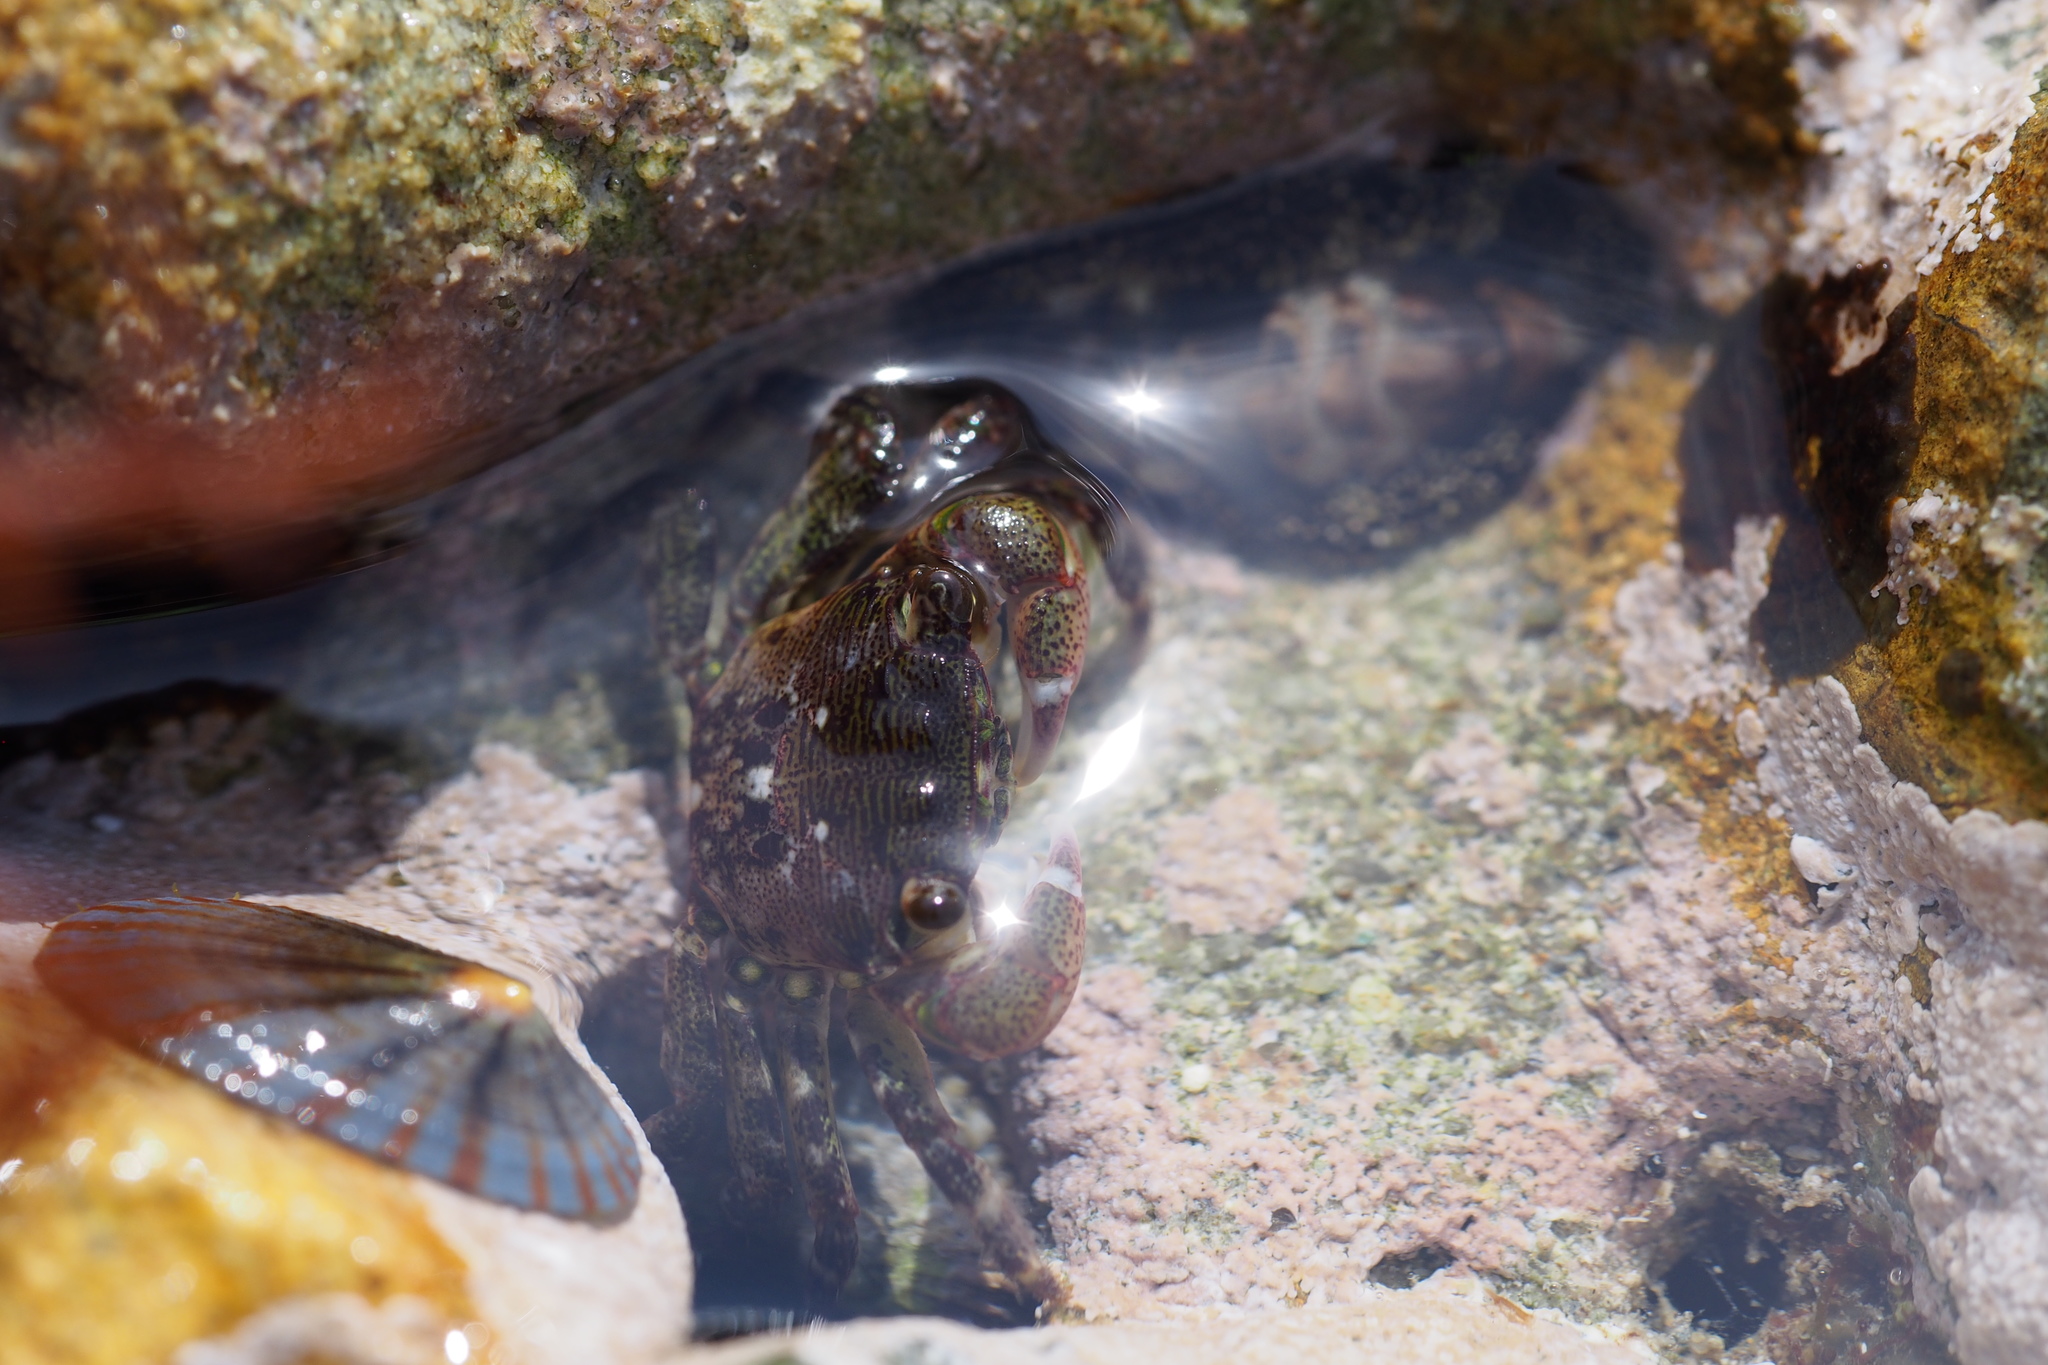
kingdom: Animalia
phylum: Arthropoda
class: Malacostraca
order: Decapoda
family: Grapsidae
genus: Pachygrapsus
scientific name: Pachygrapsus crassipes
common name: Striped shore crab
